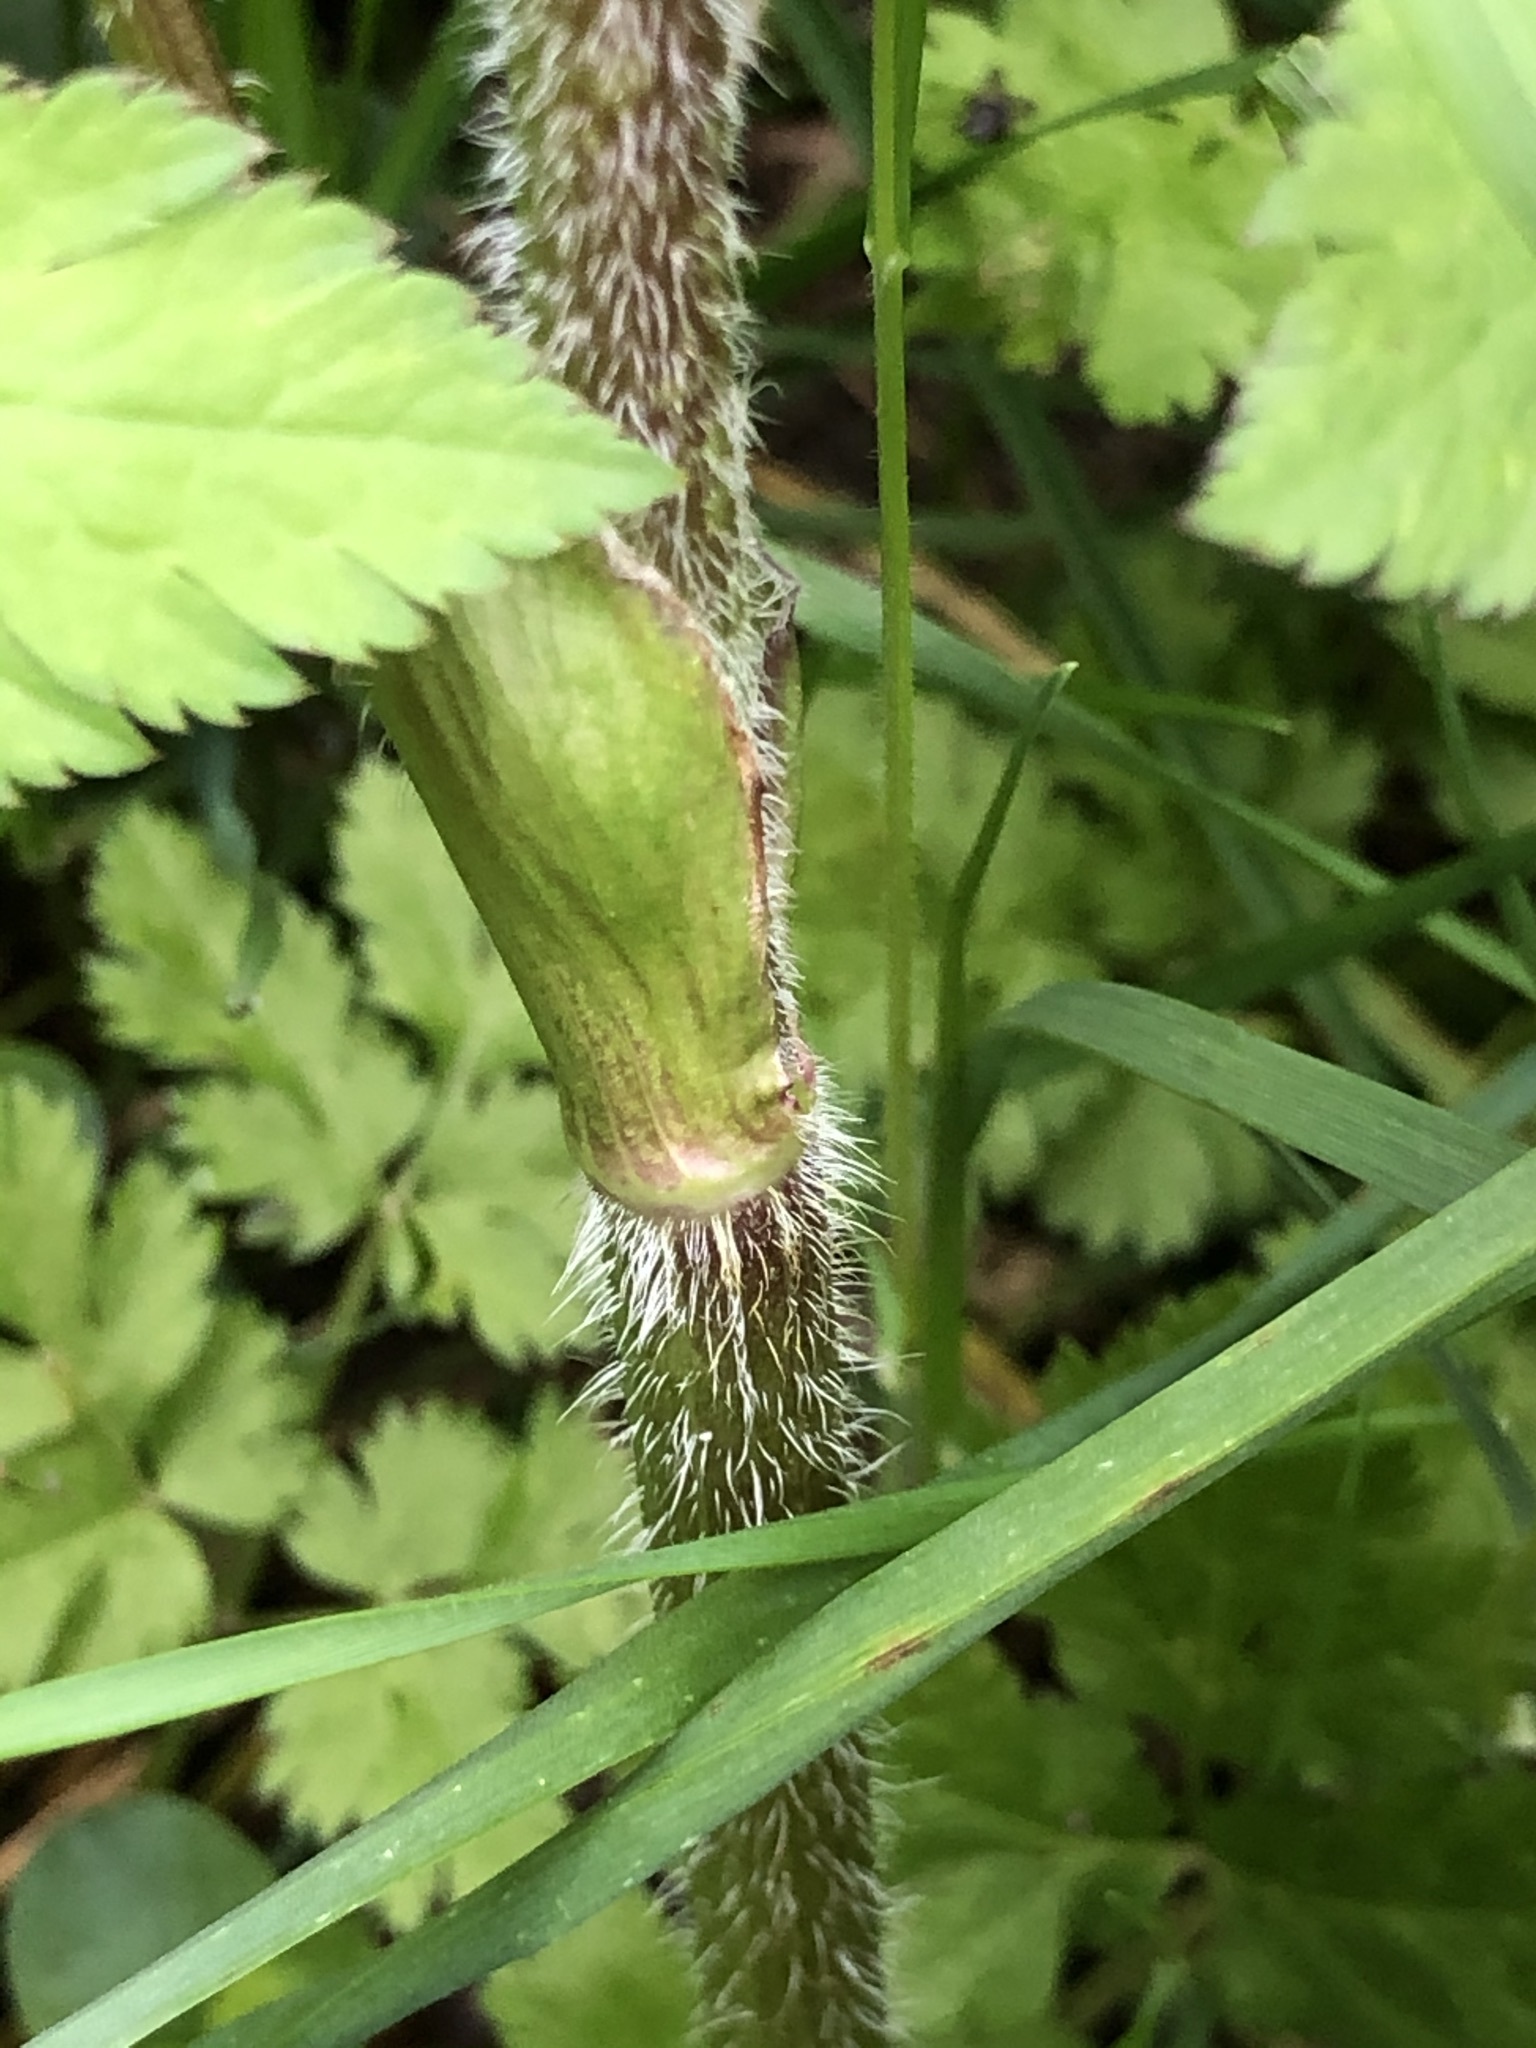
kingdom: Plantae
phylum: Tracheophyta
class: Magnoliopsida
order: Apiales
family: Apiaceae
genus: Chaerophyllum
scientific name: Chaerophyllum hirsutum
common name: Hairy chervil
